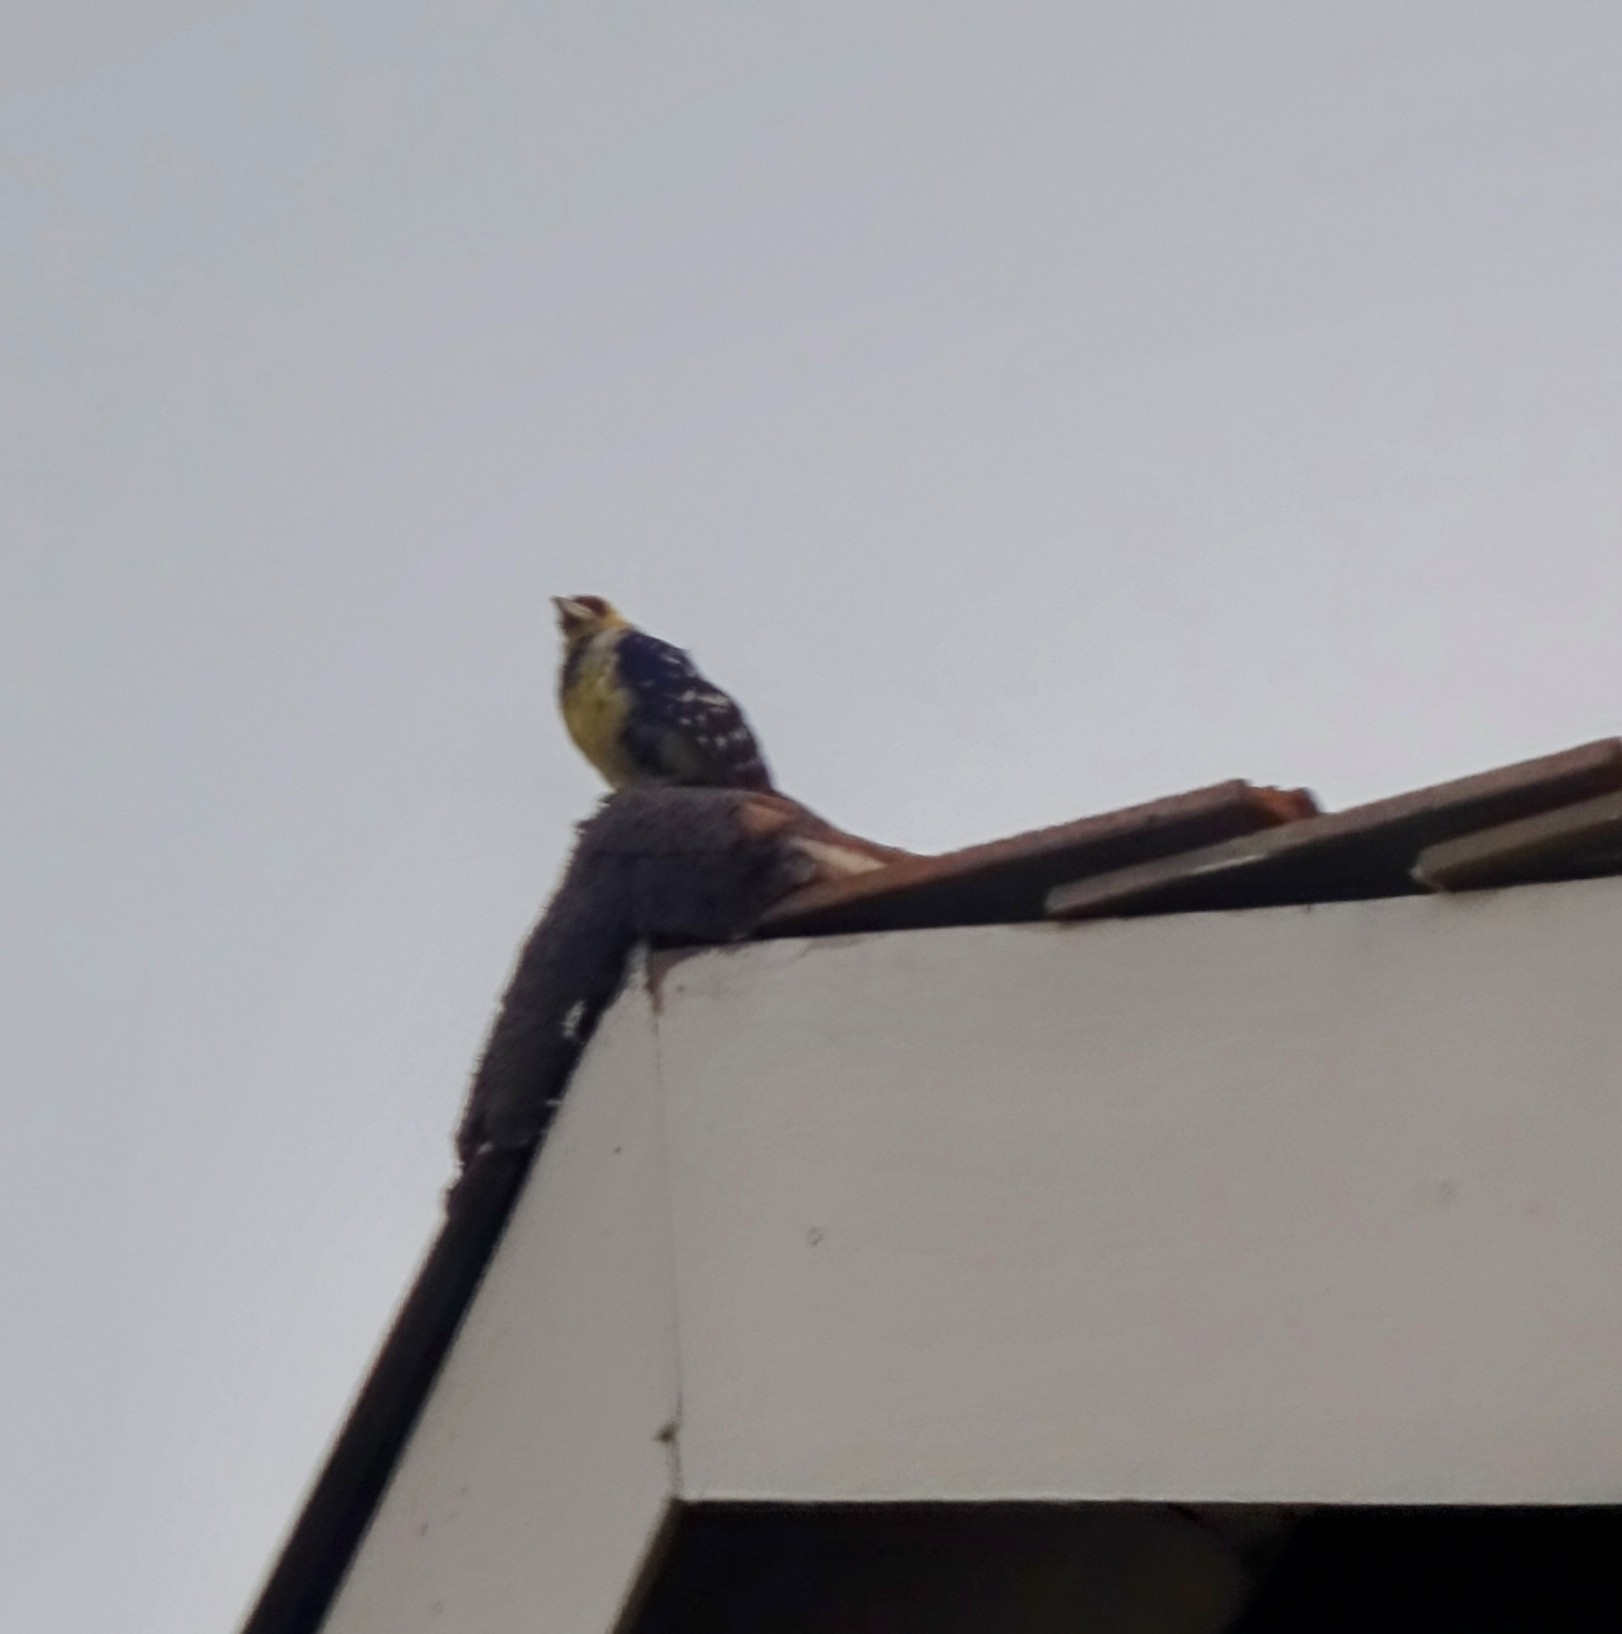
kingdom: Animalia
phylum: Chordata
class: Aves
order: Piciformes
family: Lybiidae
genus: Trachyphonus
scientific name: Trachyphonus vaillantii
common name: Crested barbet
